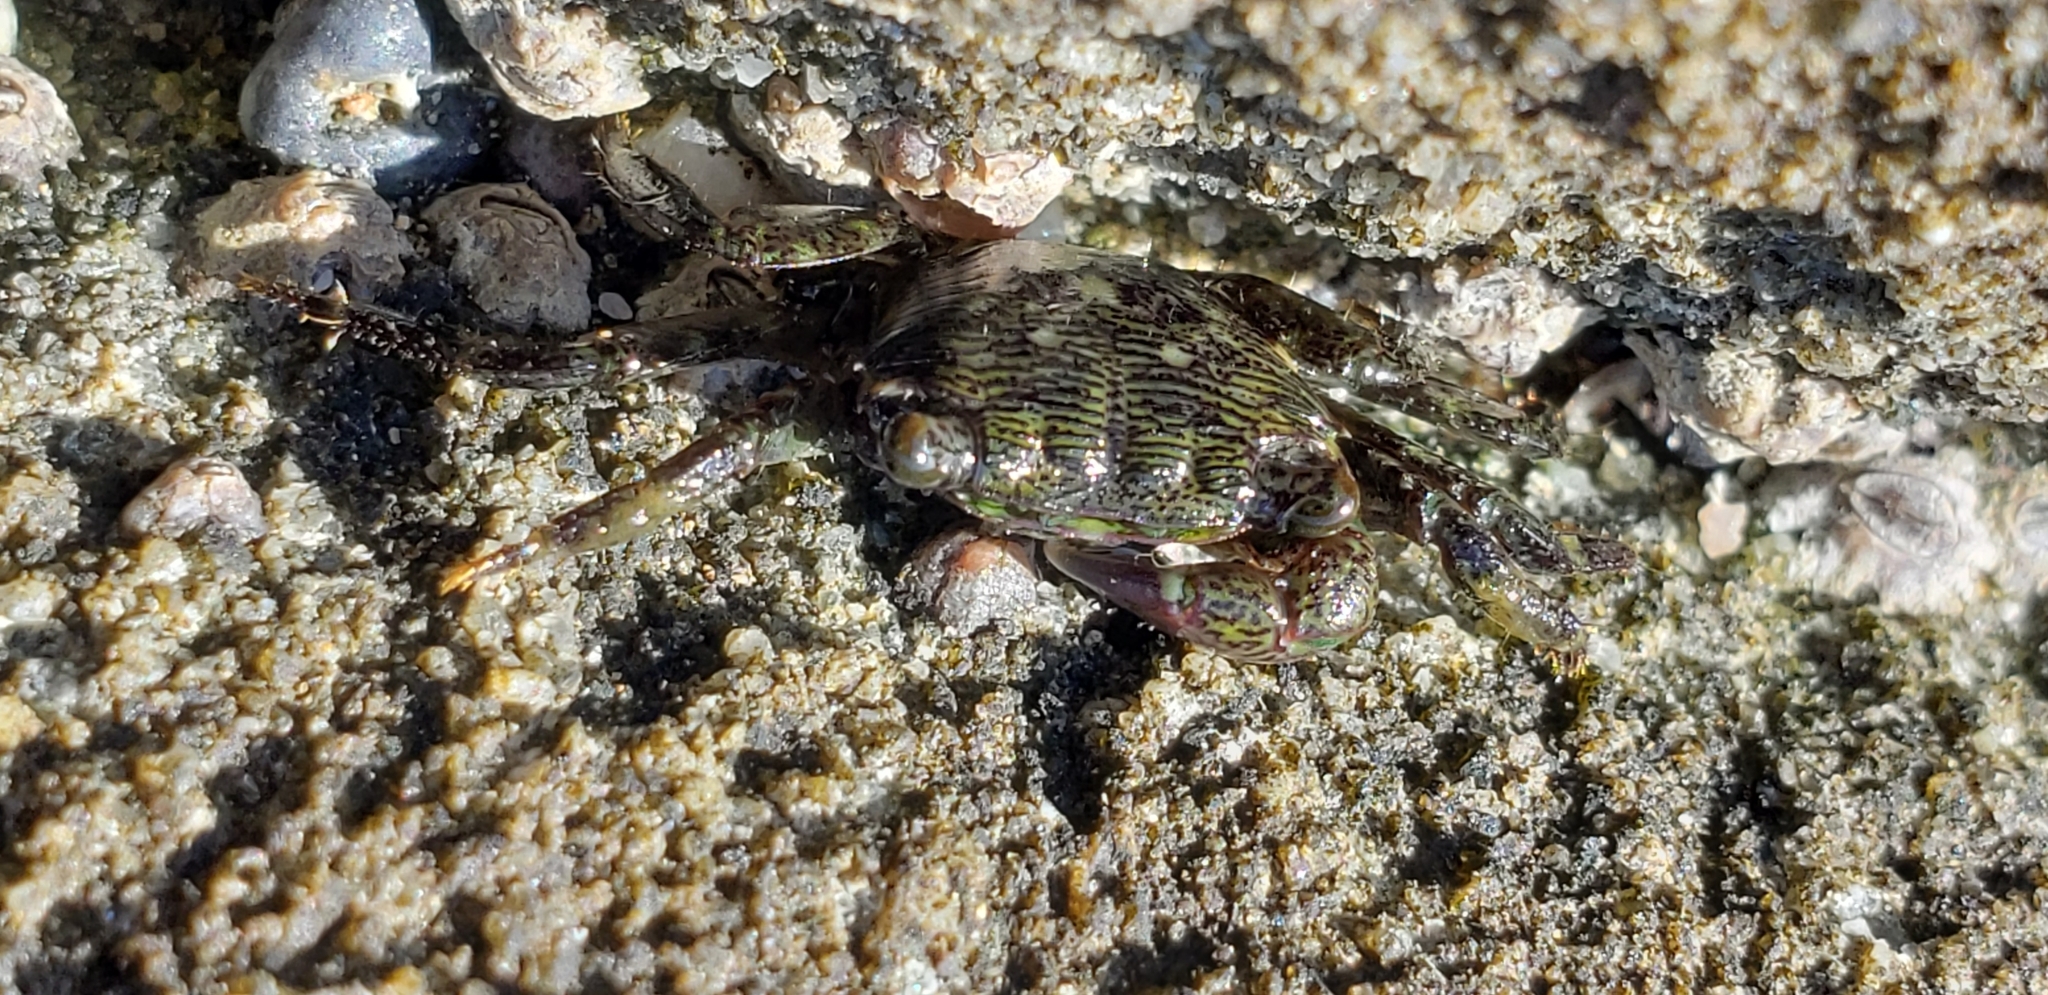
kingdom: Animalia
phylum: Arthropoda
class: Malacostraca
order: Decapoda
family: Grapsidae
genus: Pachygrapsus
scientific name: Pachygrapsus crassipes
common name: Striped shore crab
